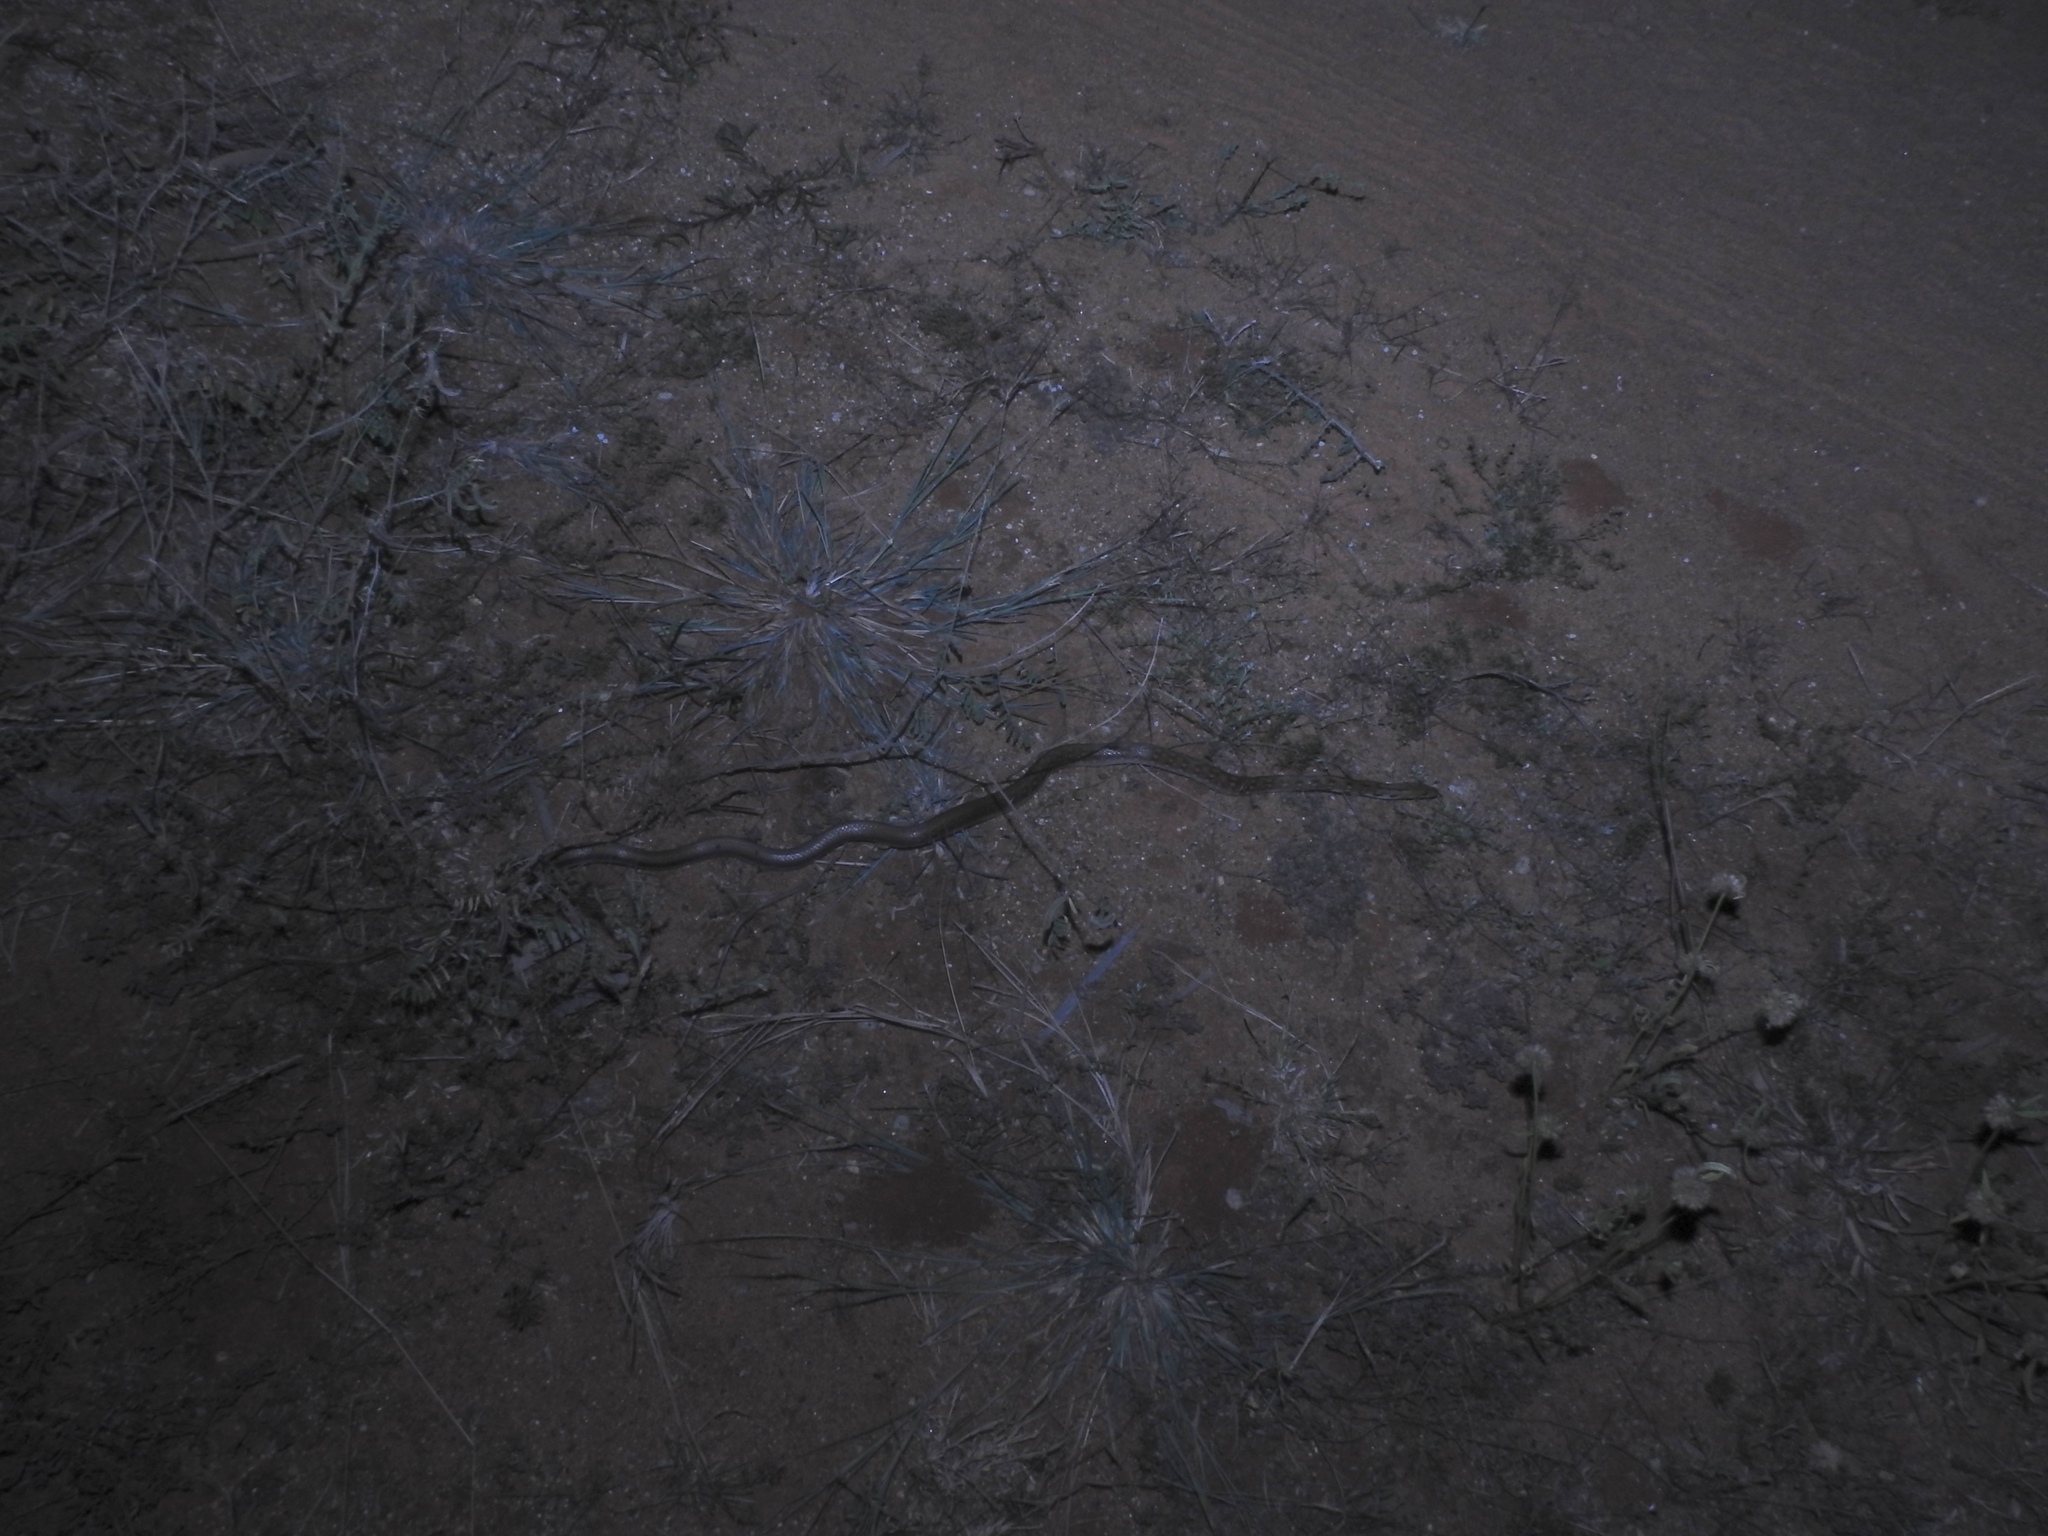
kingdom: Animalia
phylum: Chordata
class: Squamata
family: Colubridae
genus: Coelognathus
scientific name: Coelognathus helena
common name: Trinket snake
